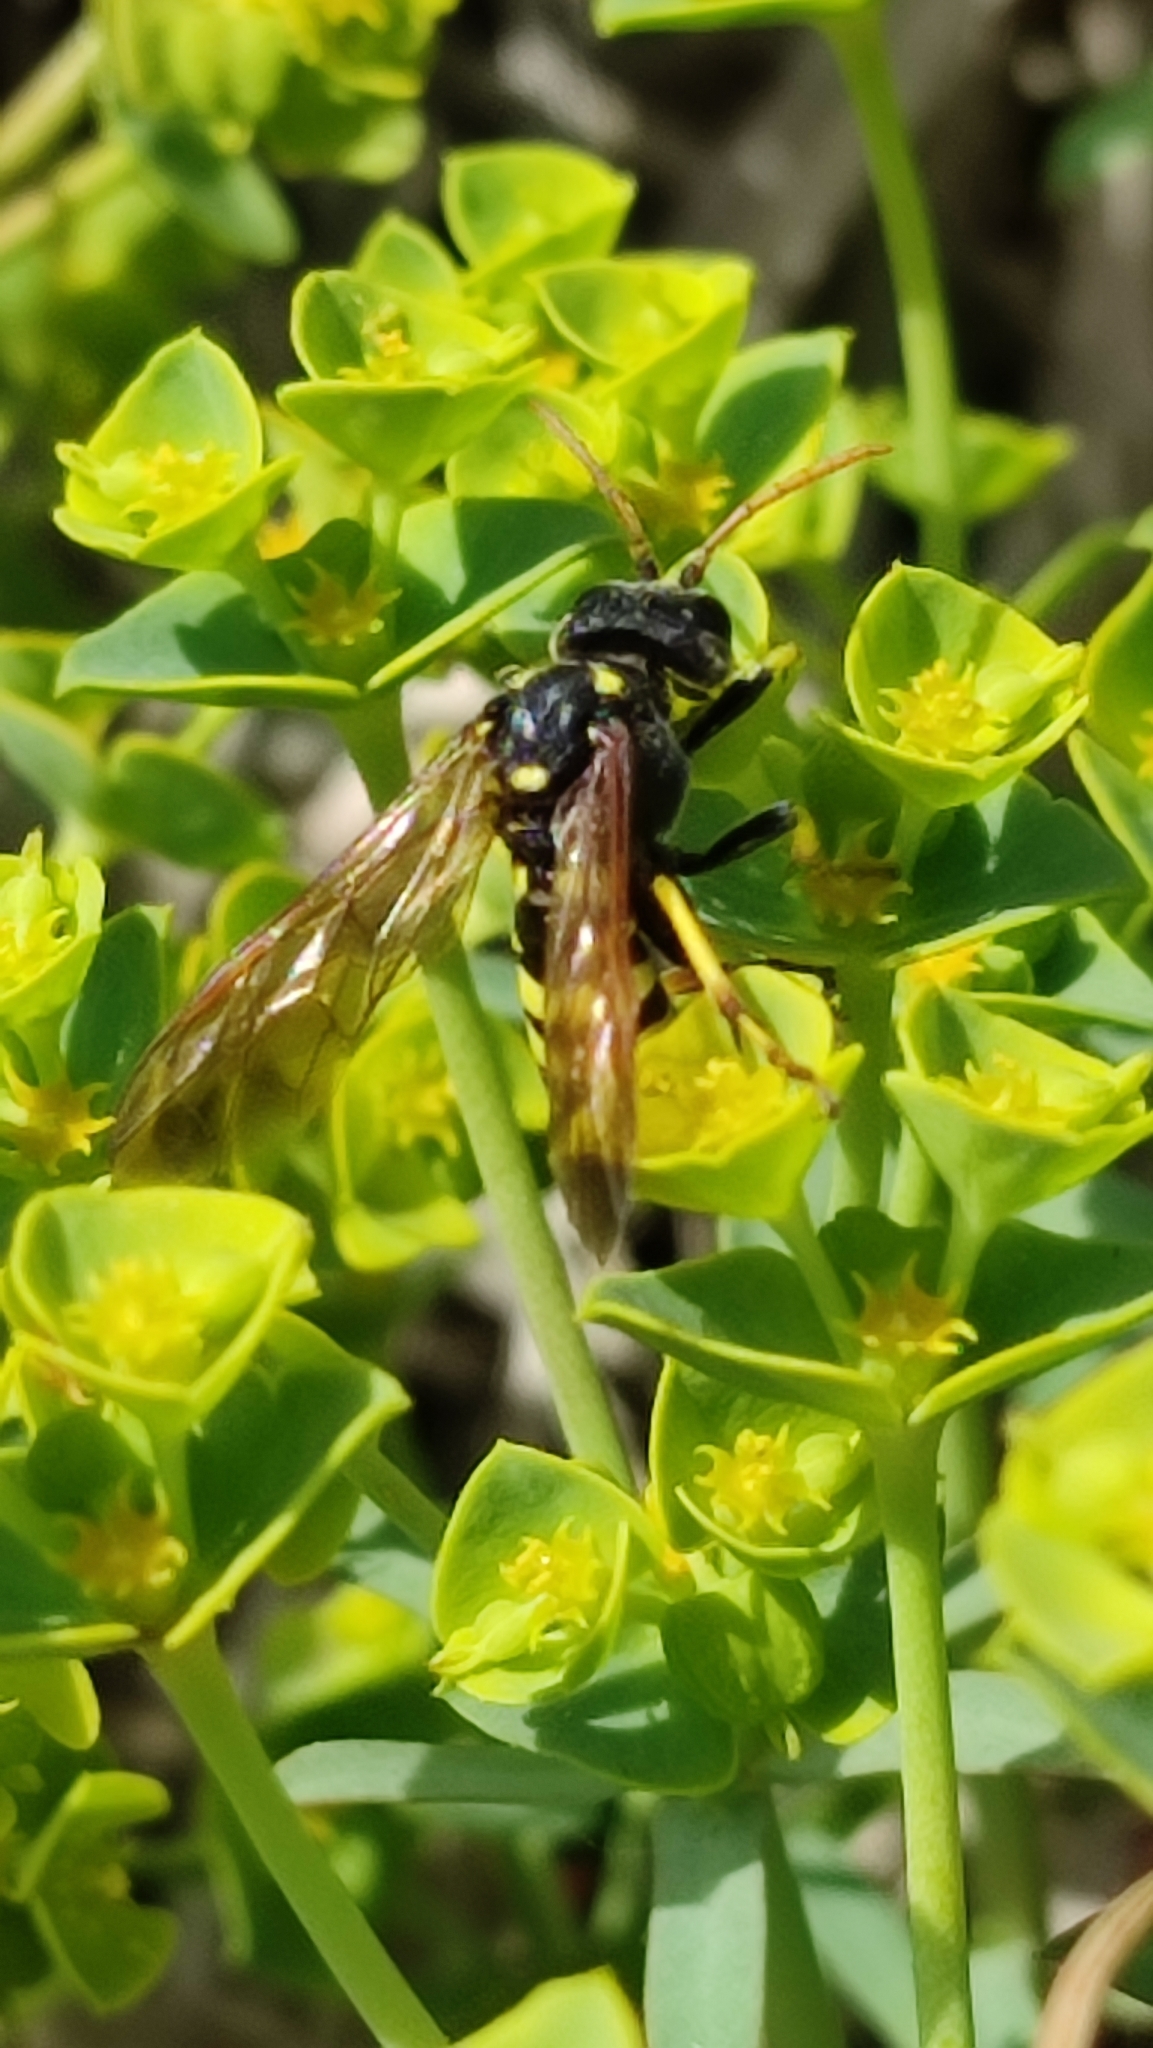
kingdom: Animalia
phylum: Arthropoda
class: Insecta
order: Hymenoptera
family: Tenthredinidae
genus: Tenthredo
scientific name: Tenthredo meridiana
